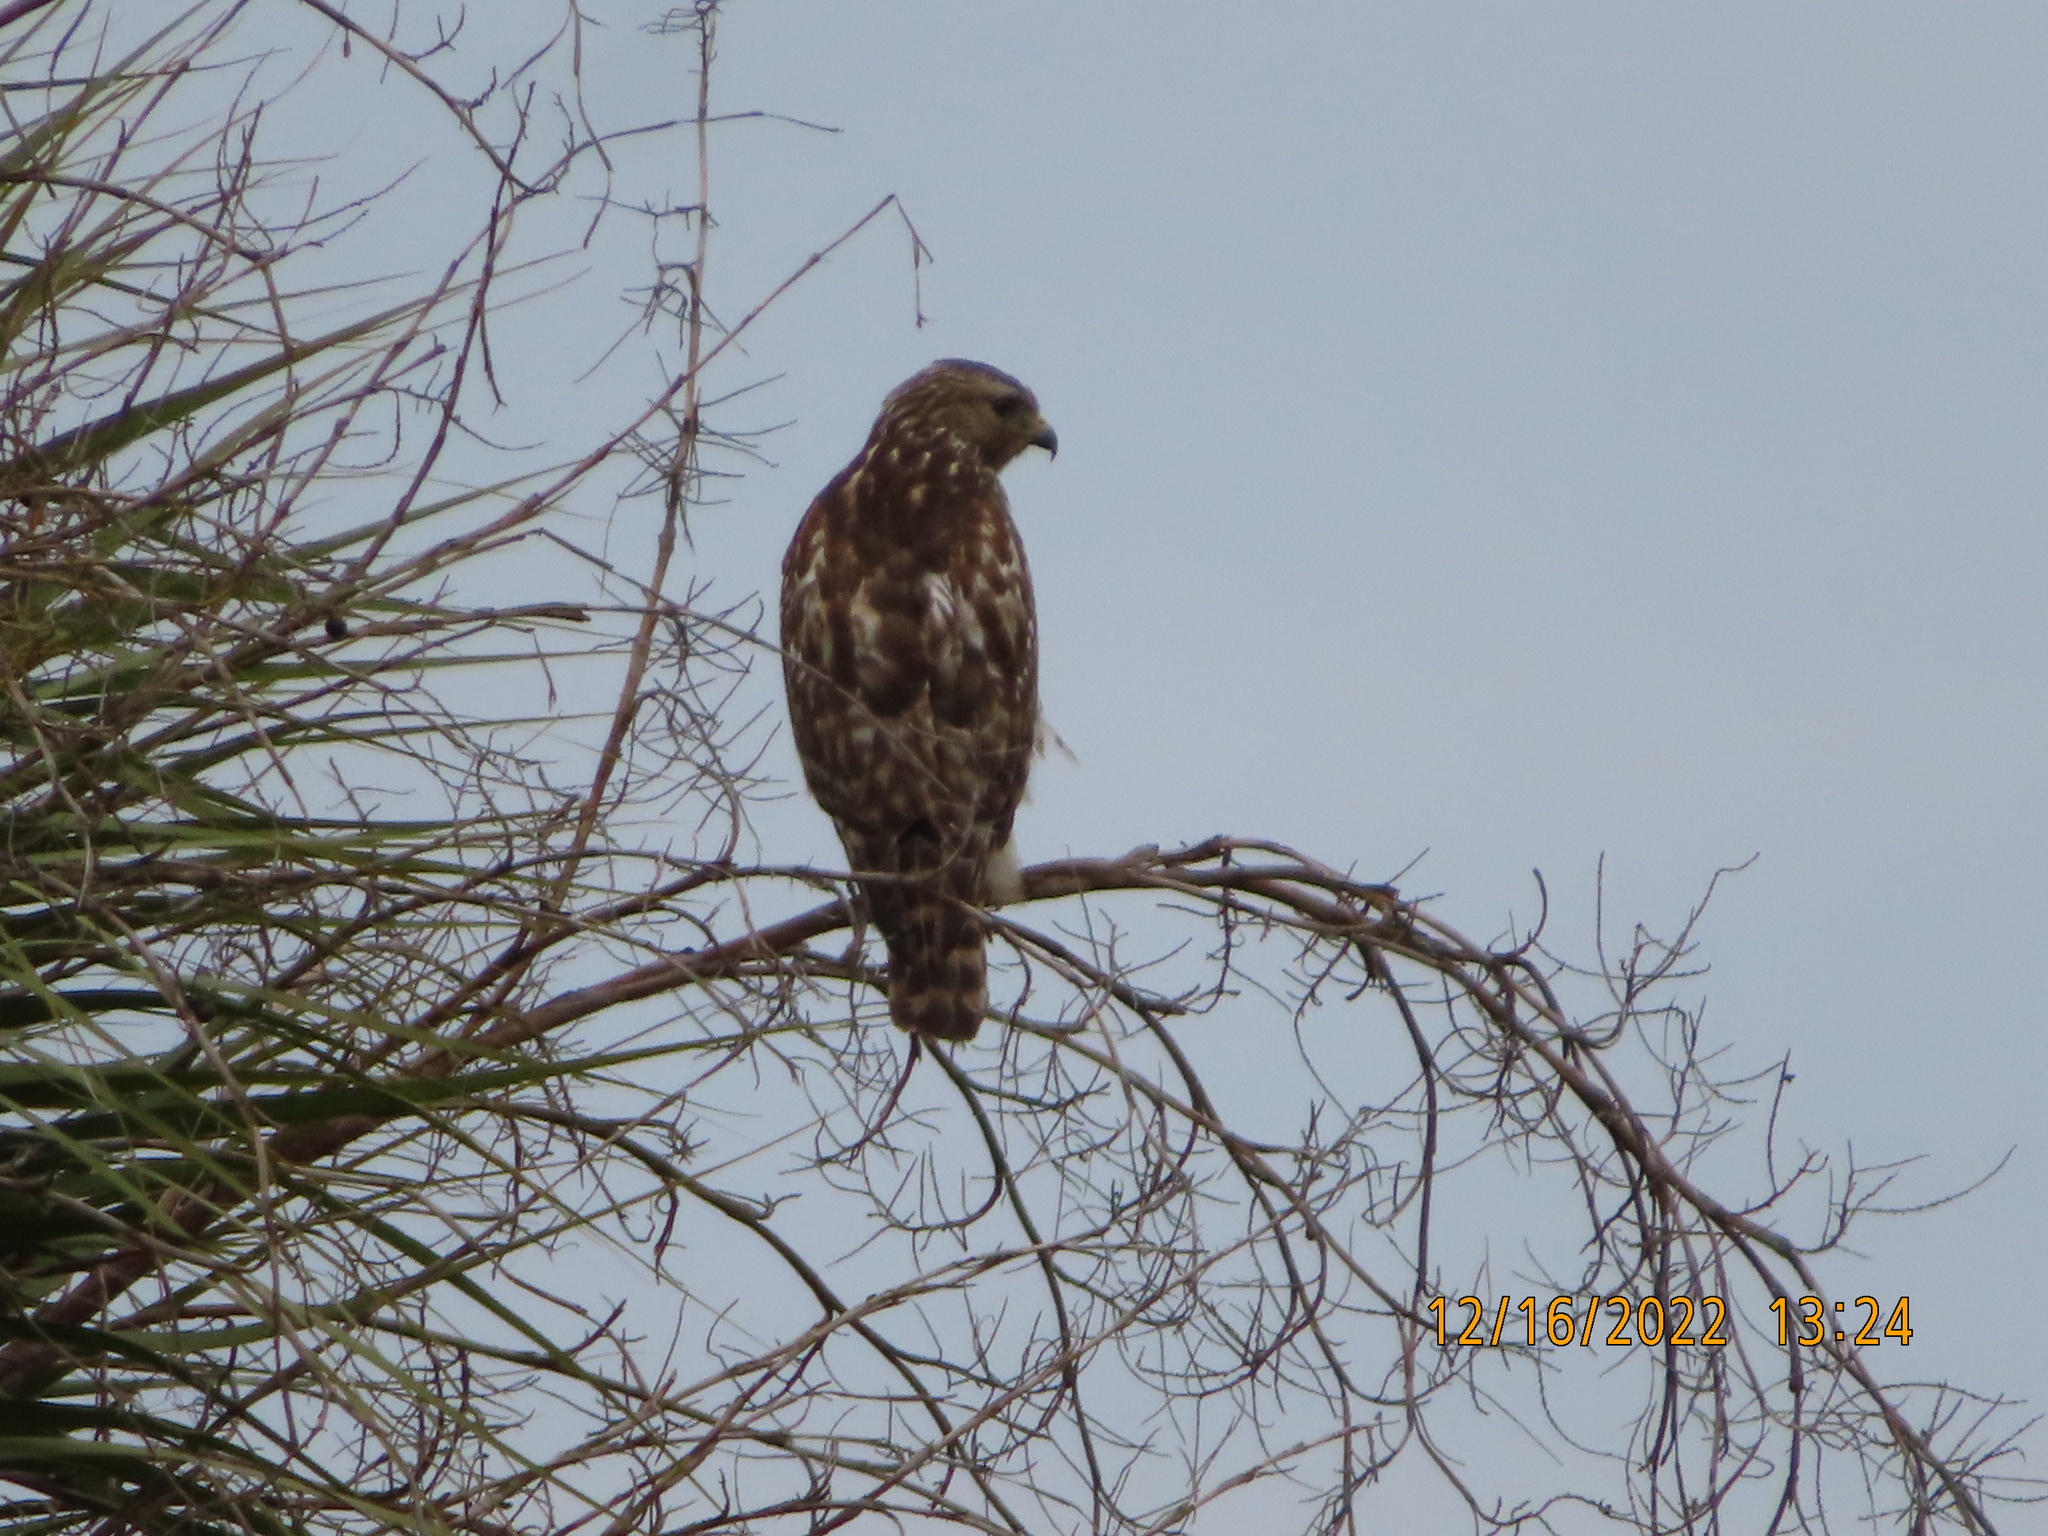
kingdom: Animalia
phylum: Chordata
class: Aves
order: Accipitriformes
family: Accipitridae
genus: Buteo
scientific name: Buteo lineatus
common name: Red-shouldered hawk
